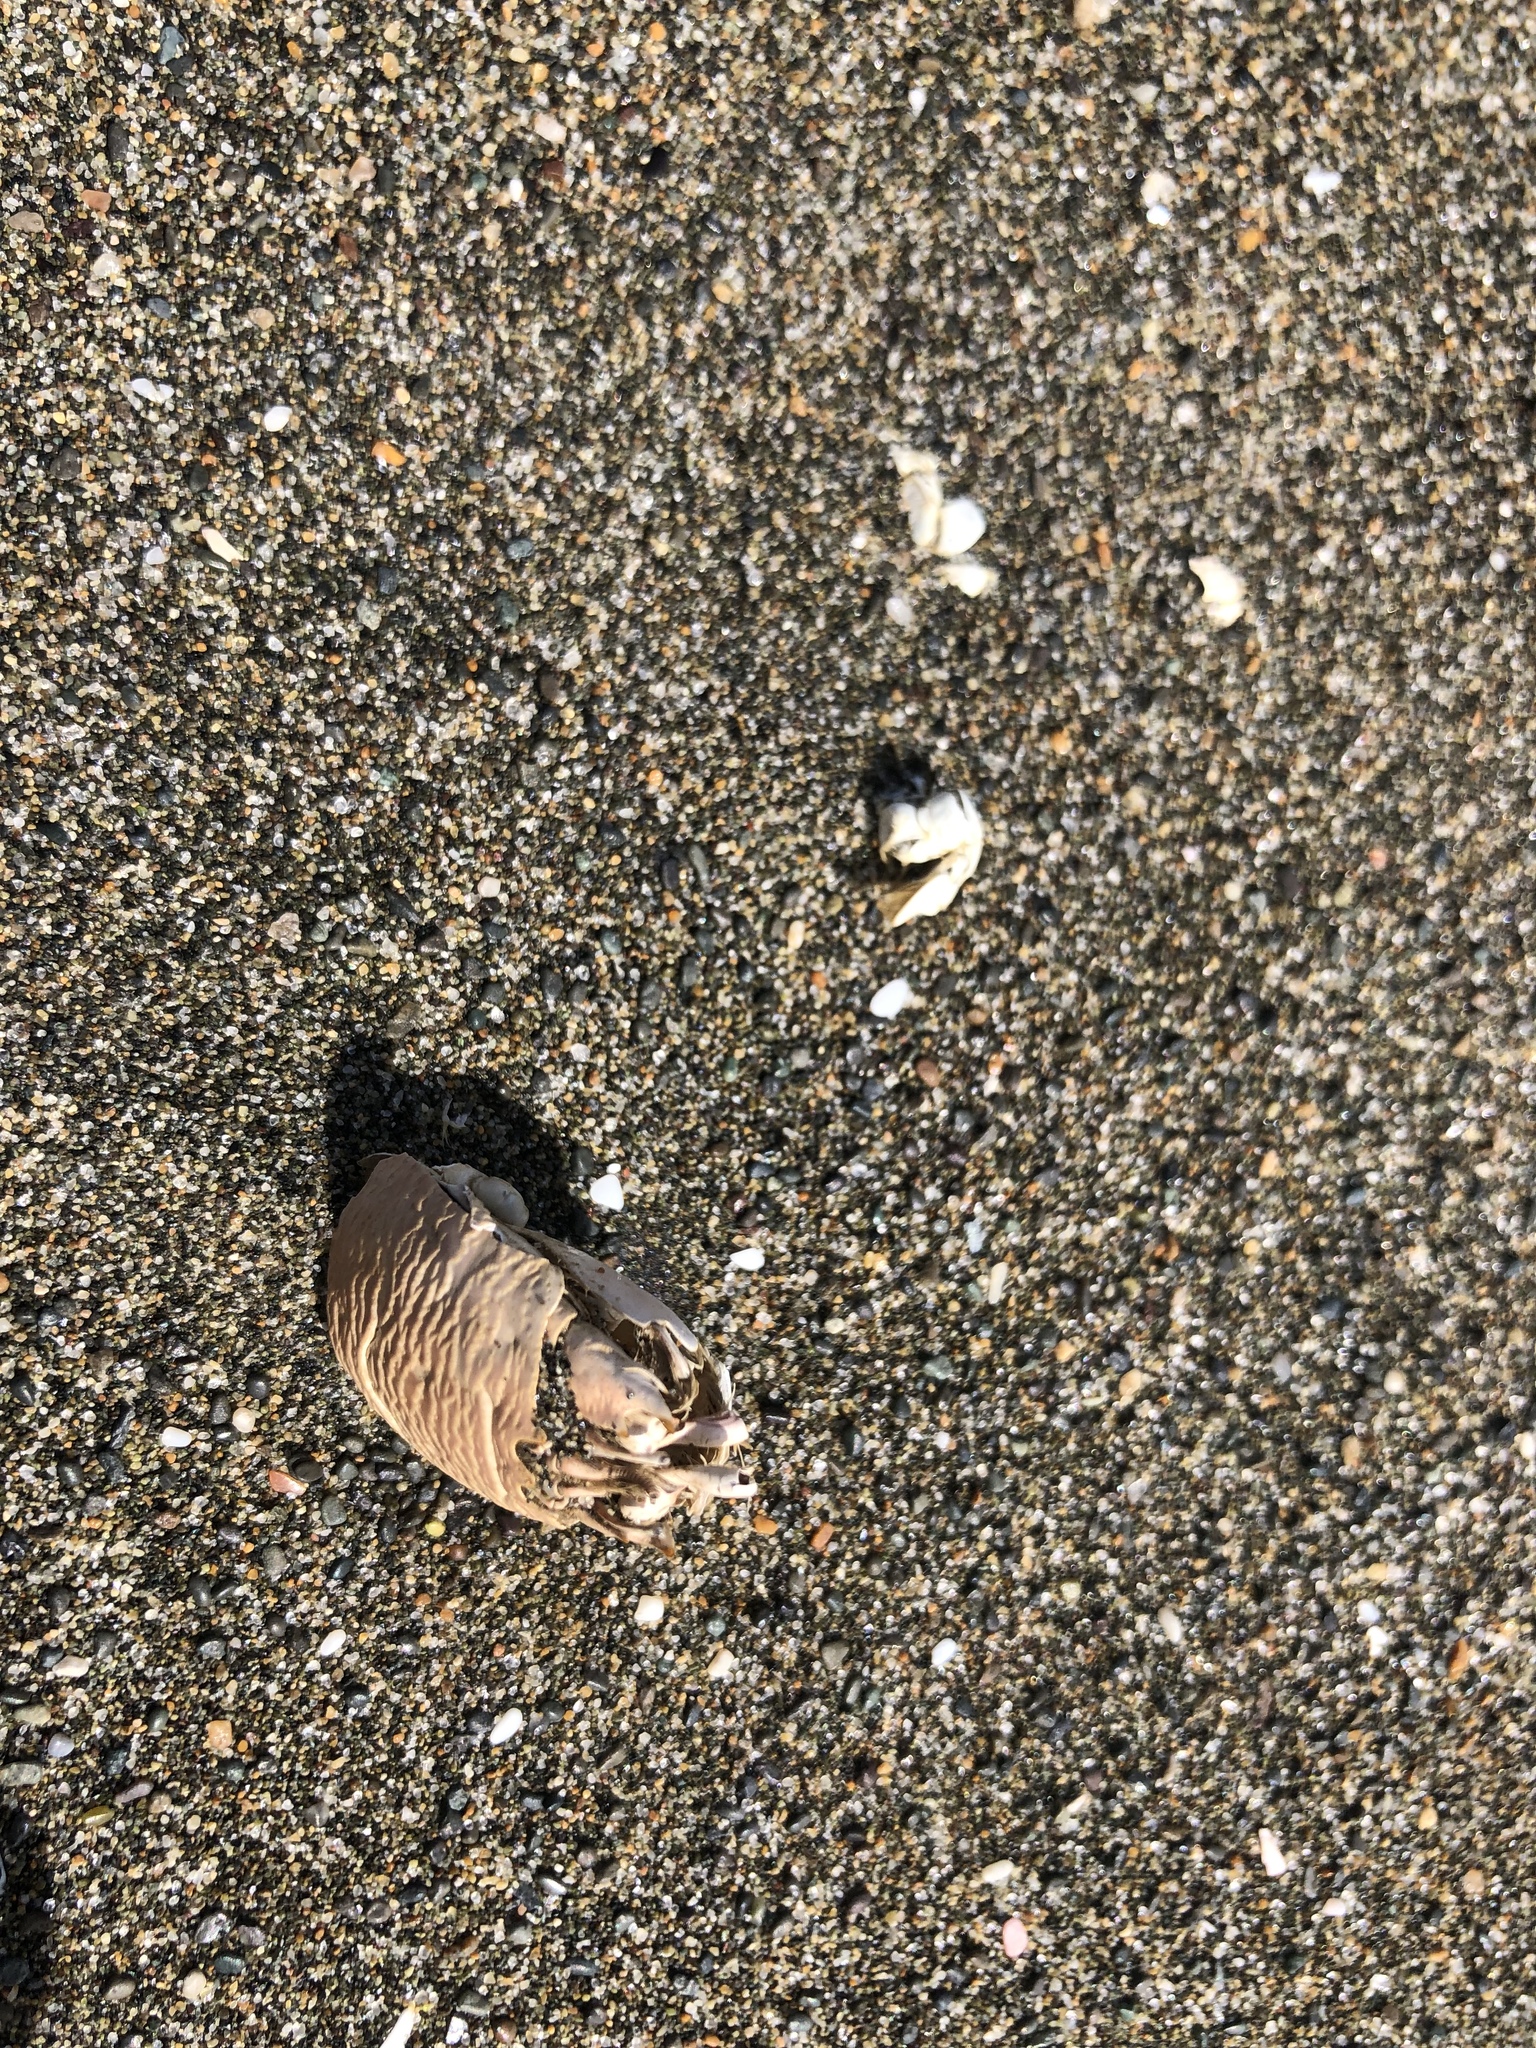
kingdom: Animalia
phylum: Arthropoda
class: Malacostraca
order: Decapoda
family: Hippidae
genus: Emerita
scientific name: Emerita analoga
